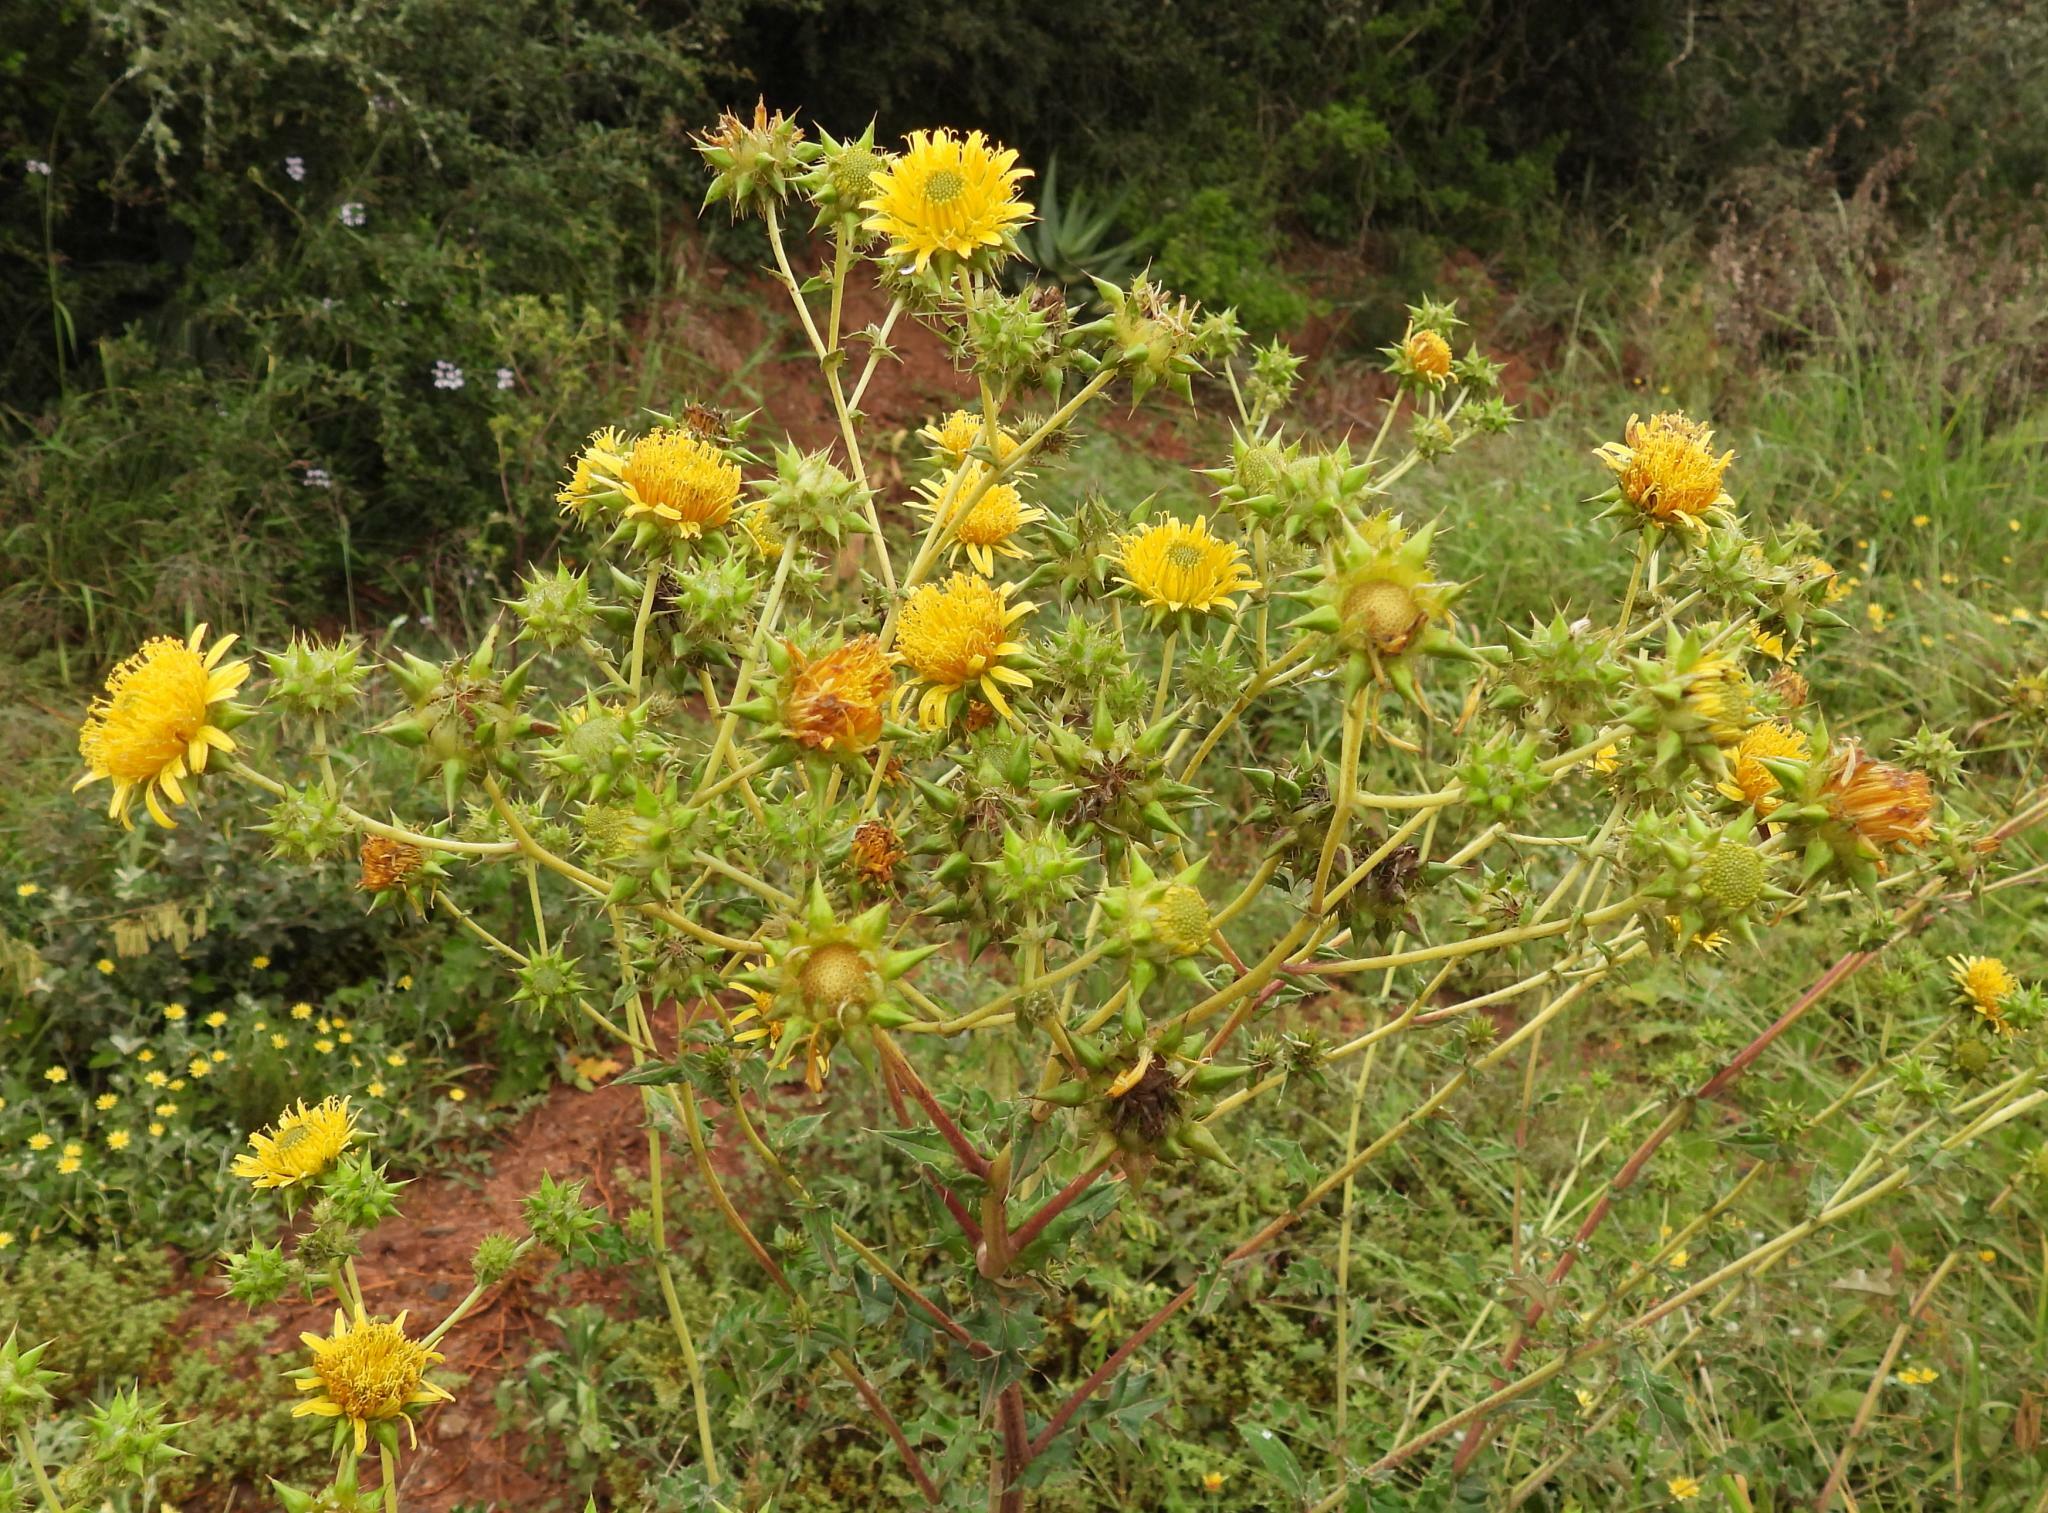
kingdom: Plantae
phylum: Tracheophyta
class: Magnoliopsida
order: Asterales
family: Asteraceae
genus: Berkheya
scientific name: Berkheya heterophylla
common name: Prickly gousblom
